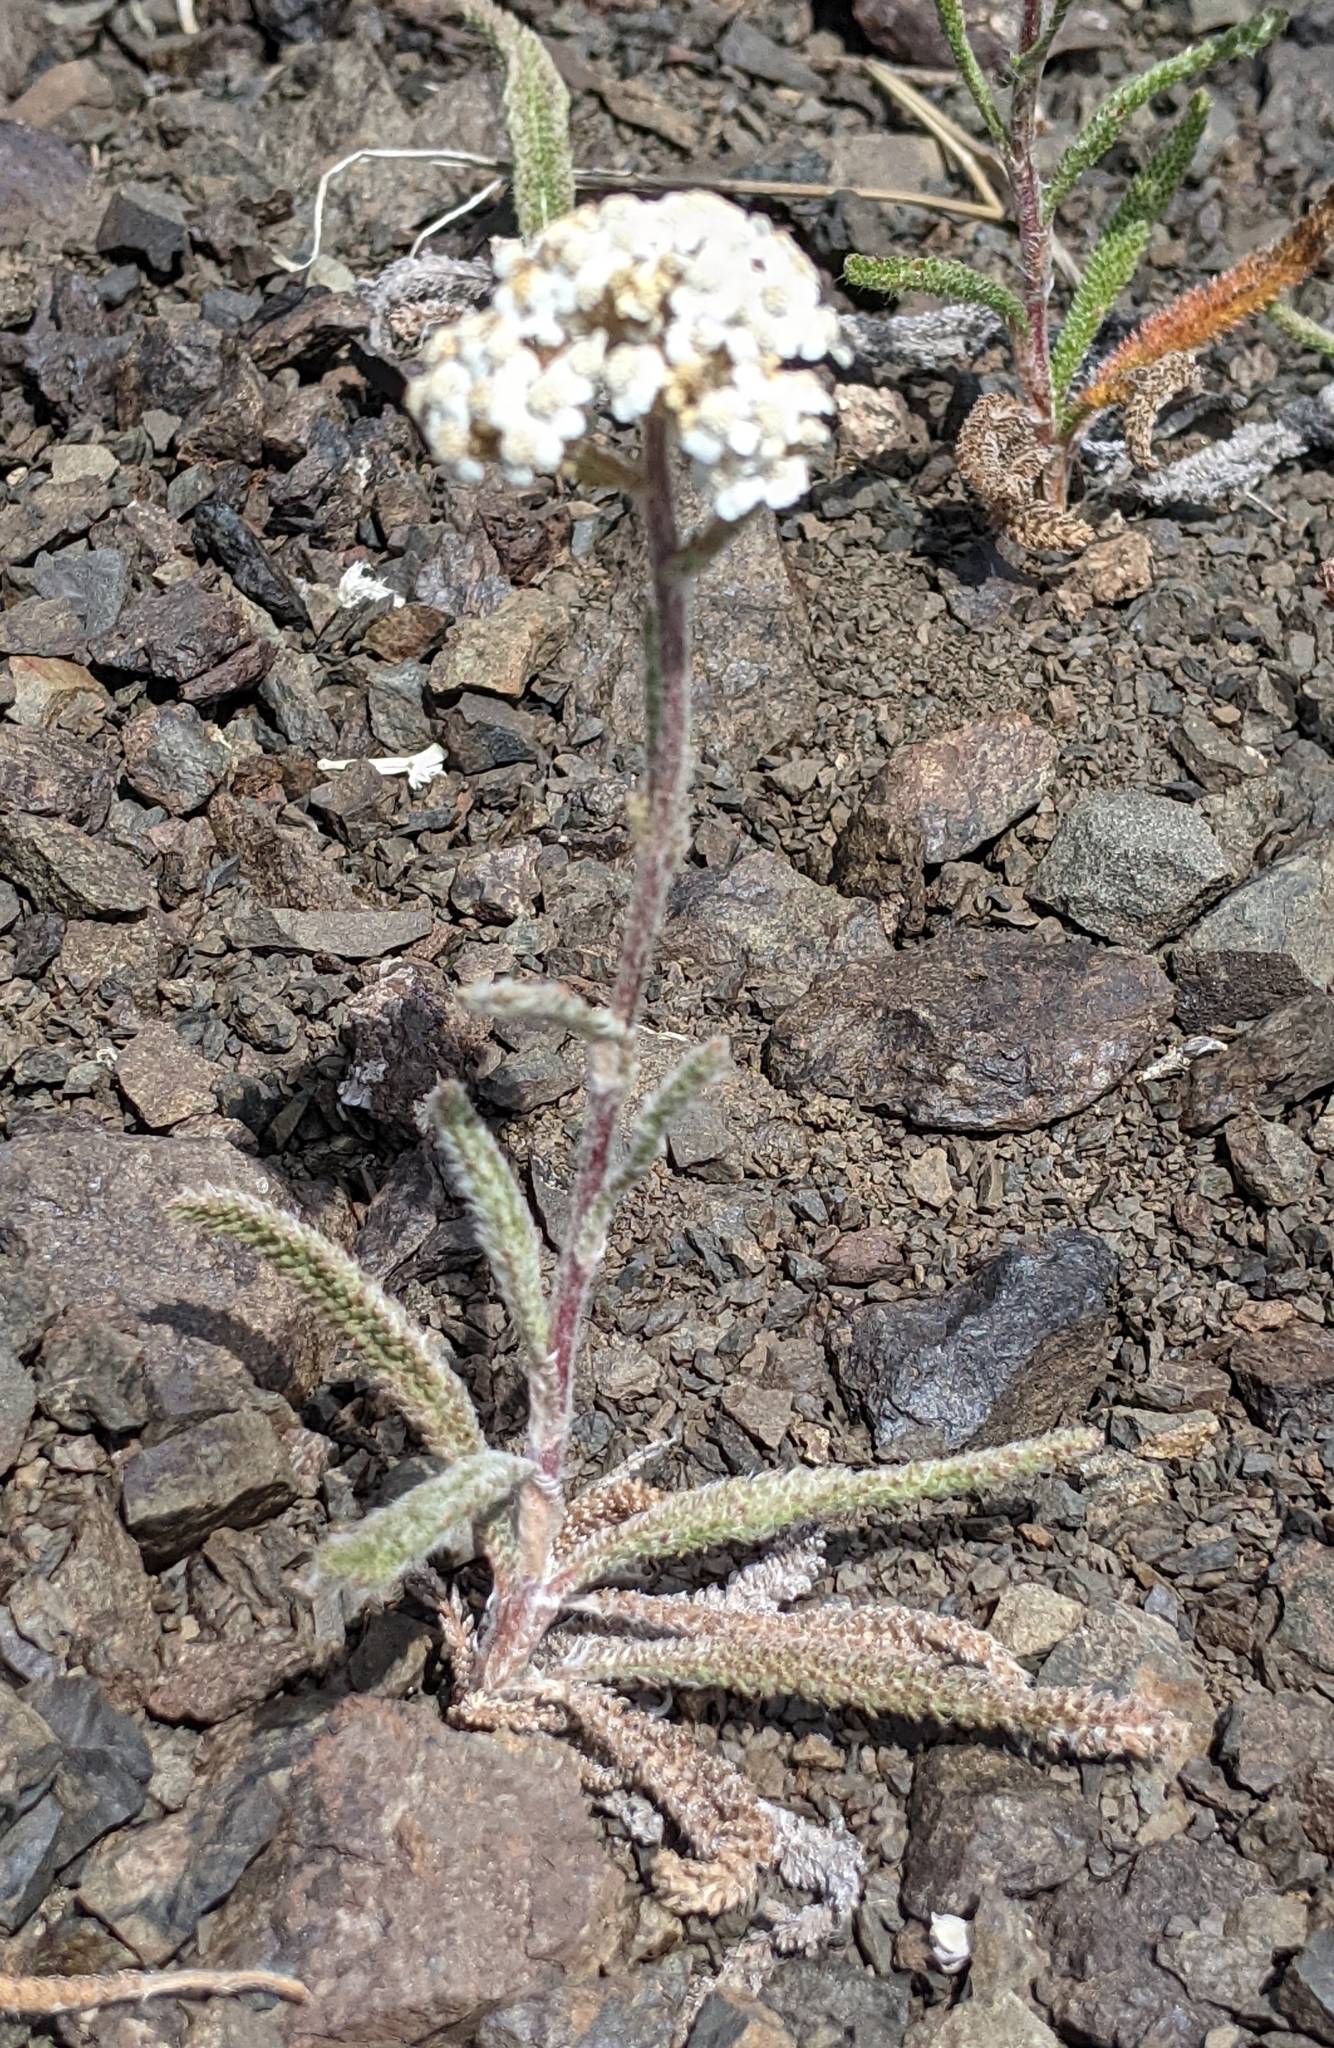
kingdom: Plantae
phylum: Tracheophyta
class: Magnoliopsida
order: Asterales
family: Asteraceae
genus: Achillea
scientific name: Achillea millefolium
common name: Yarrow
